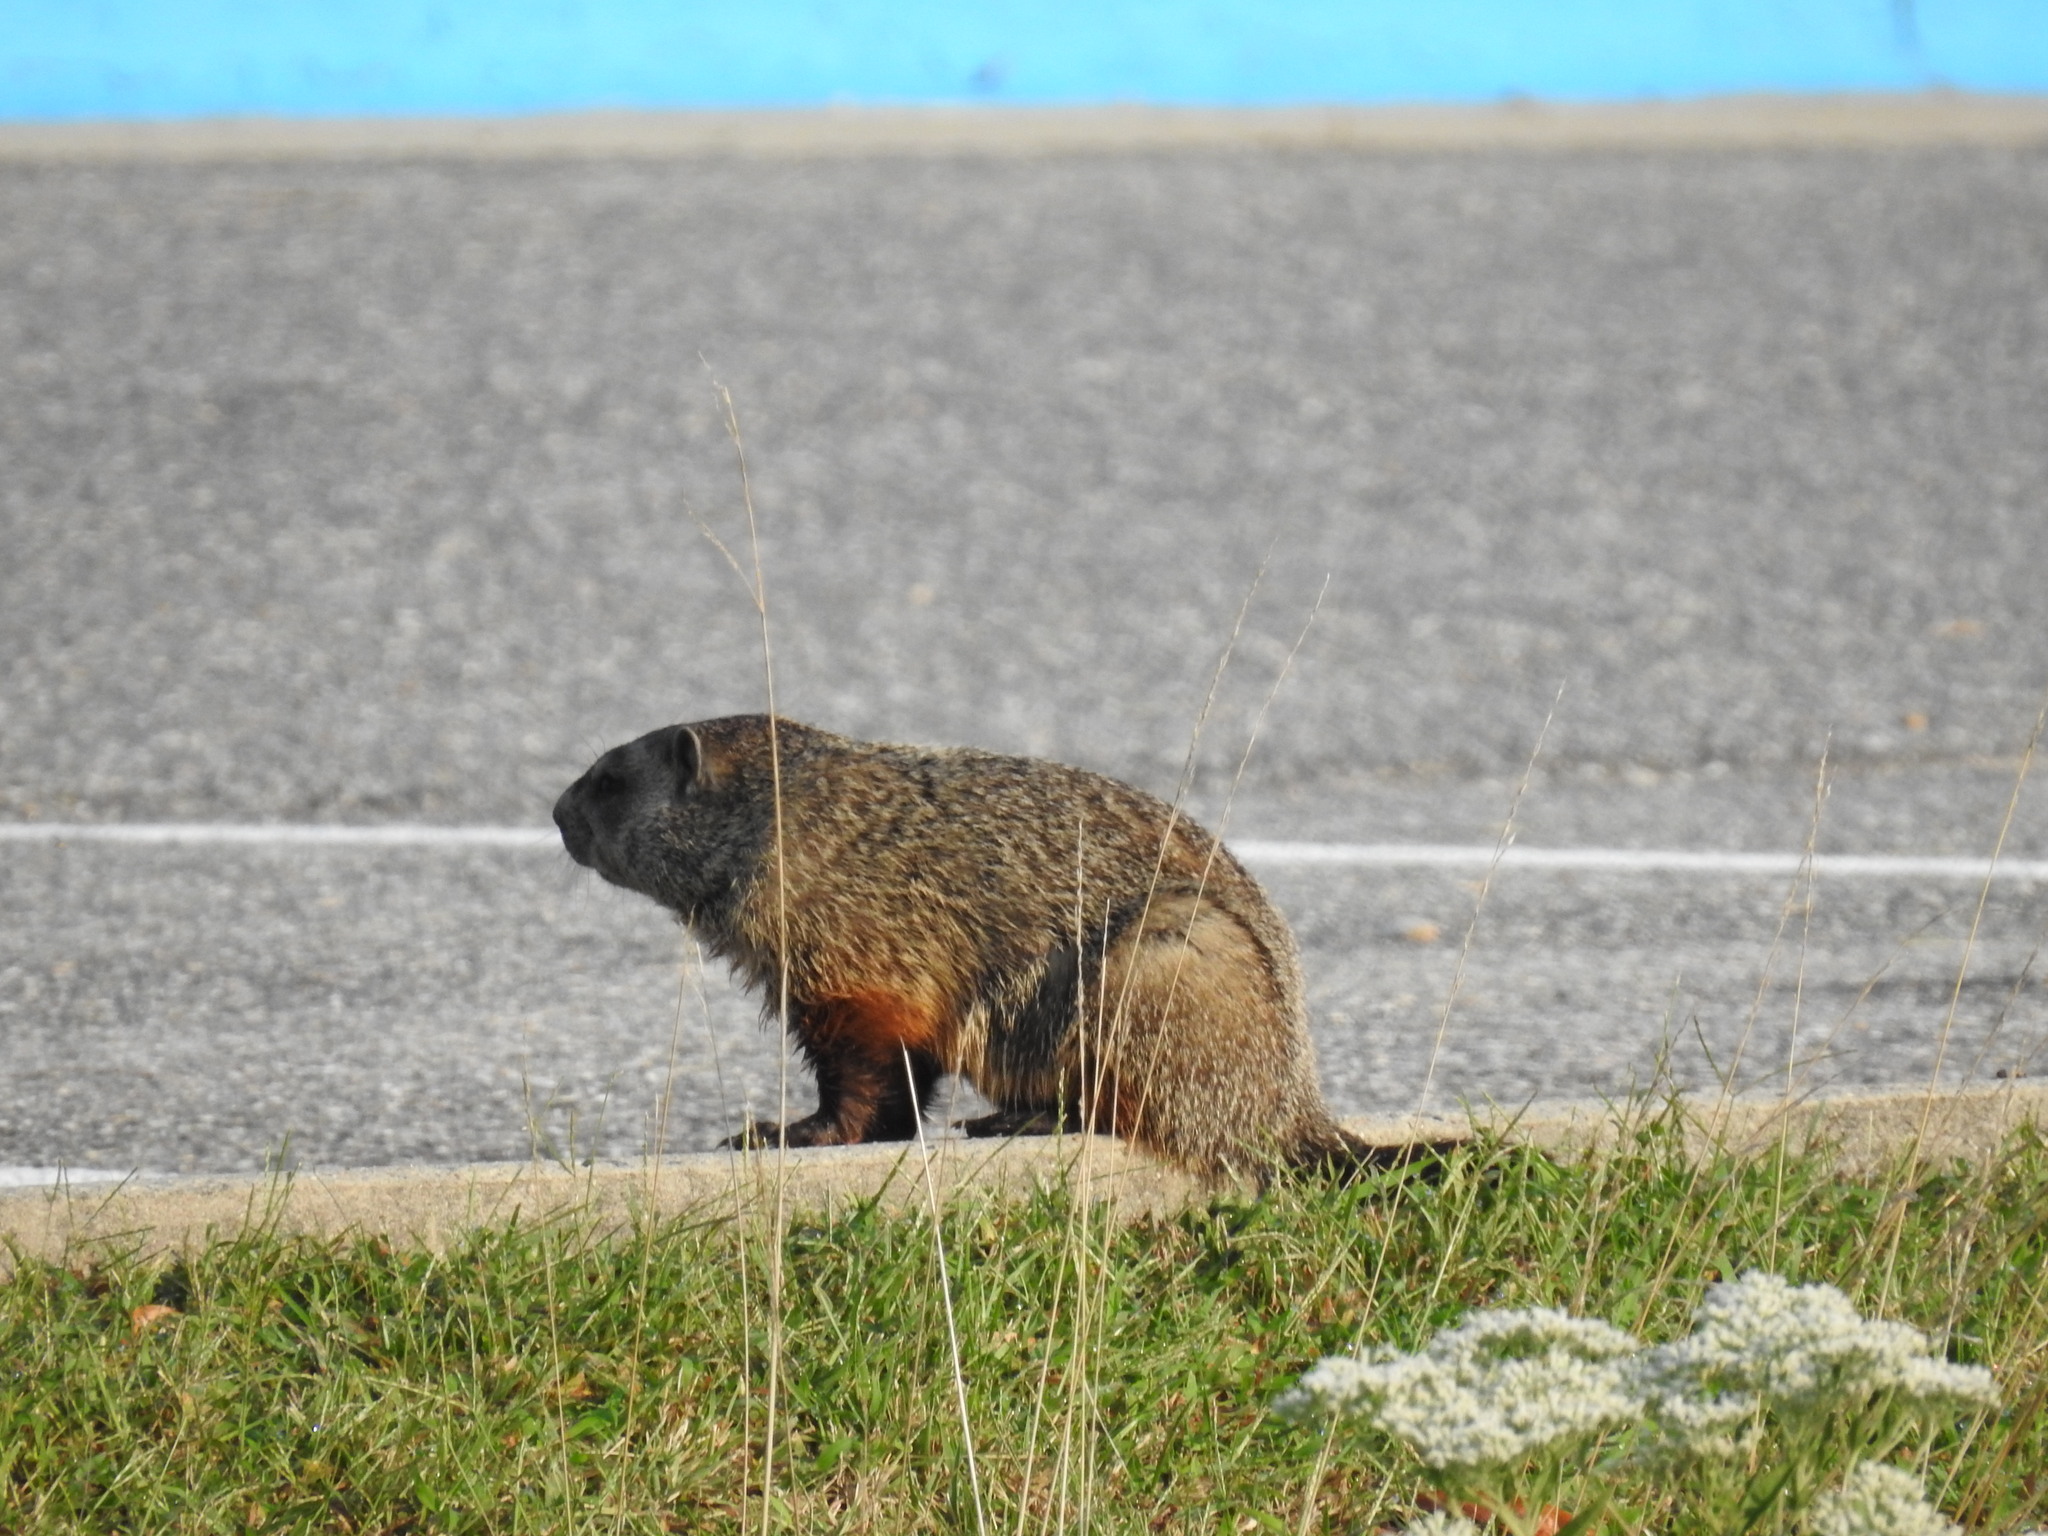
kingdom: Animalia
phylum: Chordata
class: Mammalia
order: Rodentia
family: Sciuridae
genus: Marmota
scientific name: Marmota monax
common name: Groundhog
